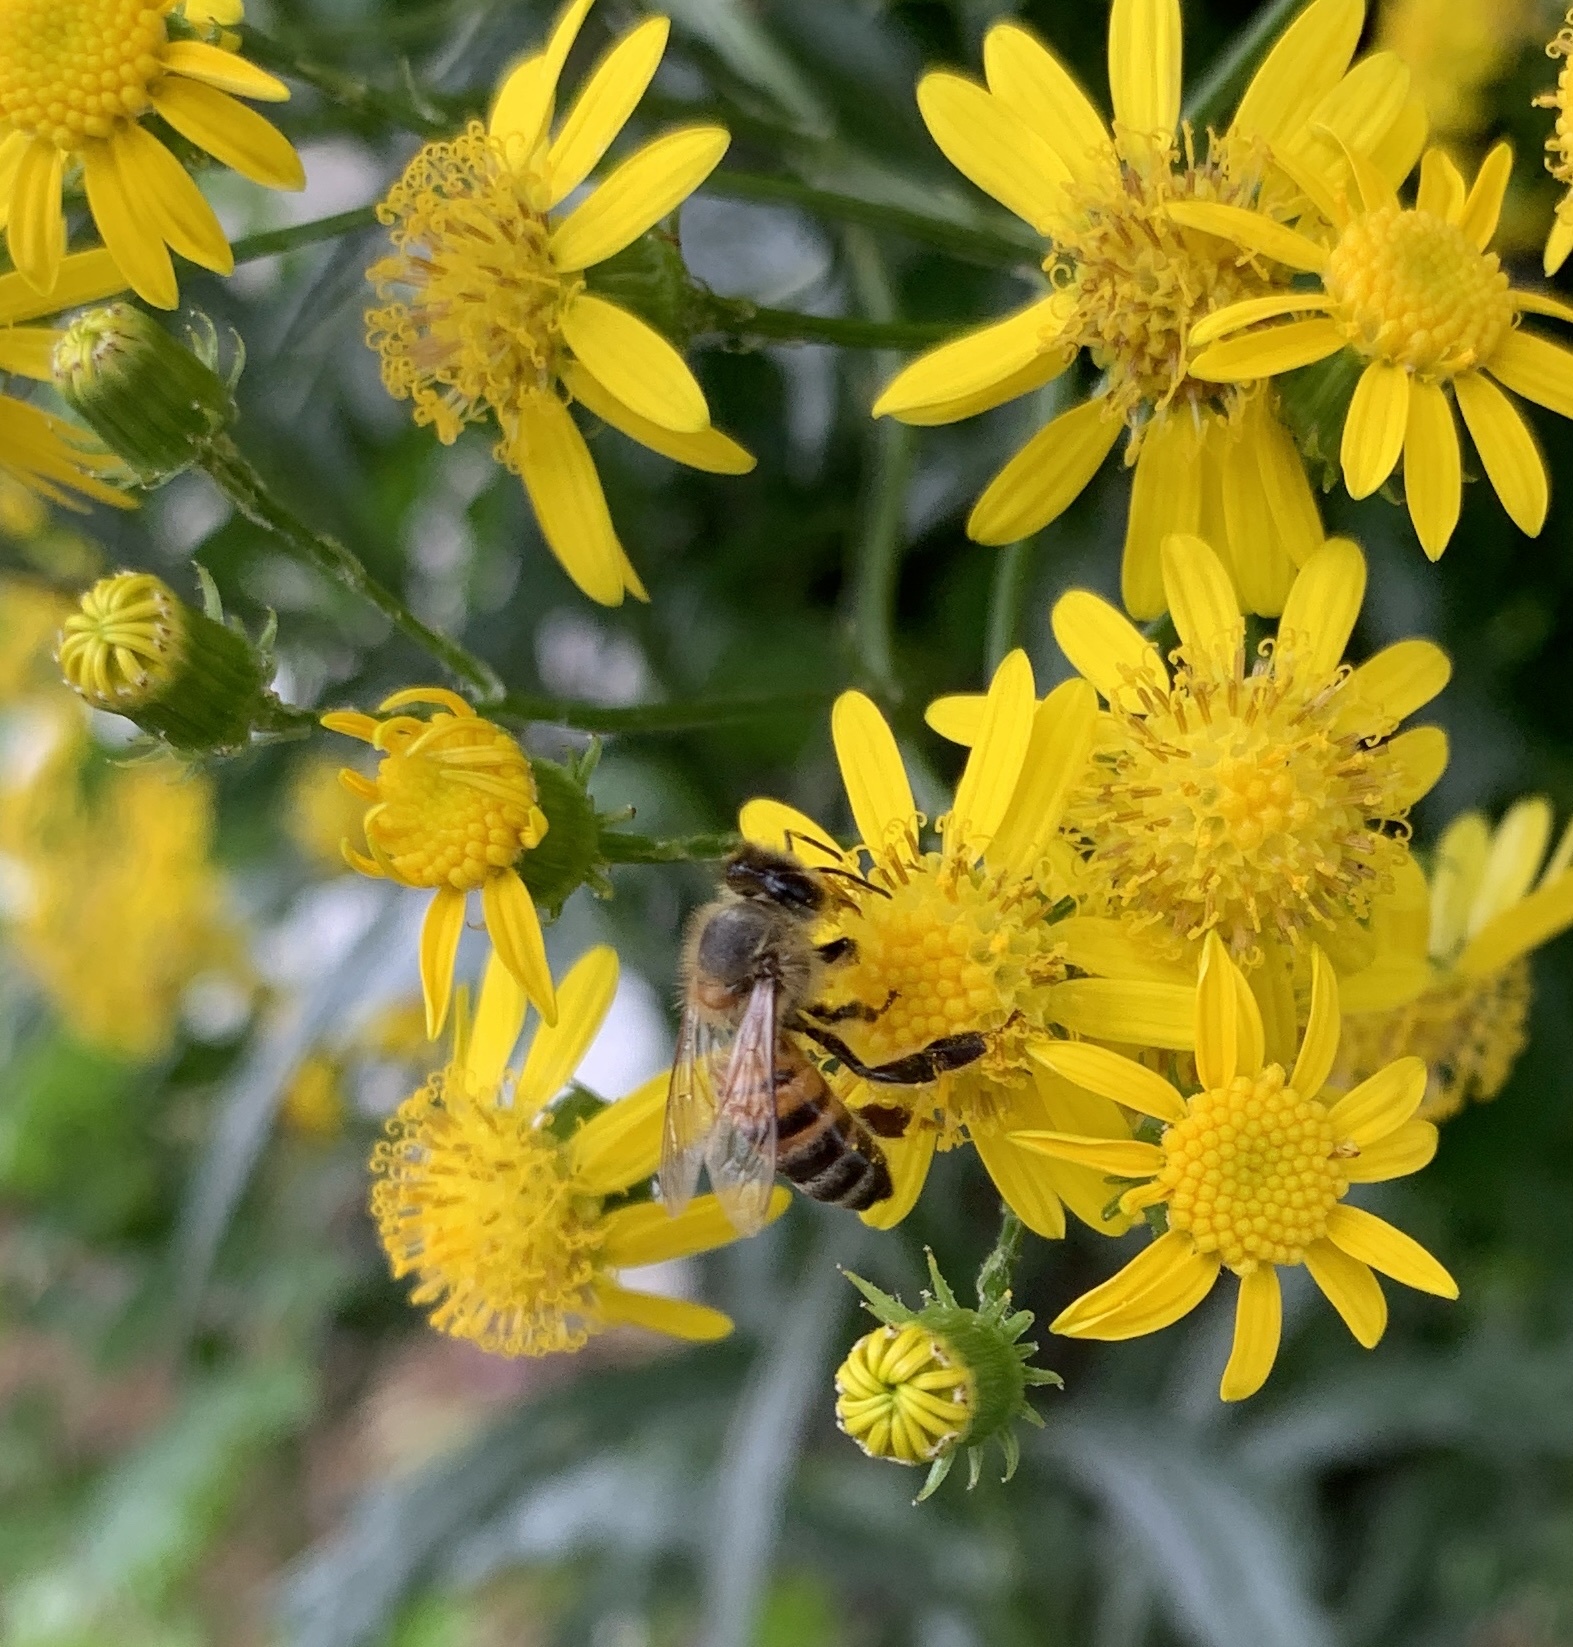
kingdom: Animalia
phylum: Arthropoda
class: Insecta
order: Hymenoptera
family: Apidae
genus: Apis
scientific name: Apis mellifera
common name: Honey bee
